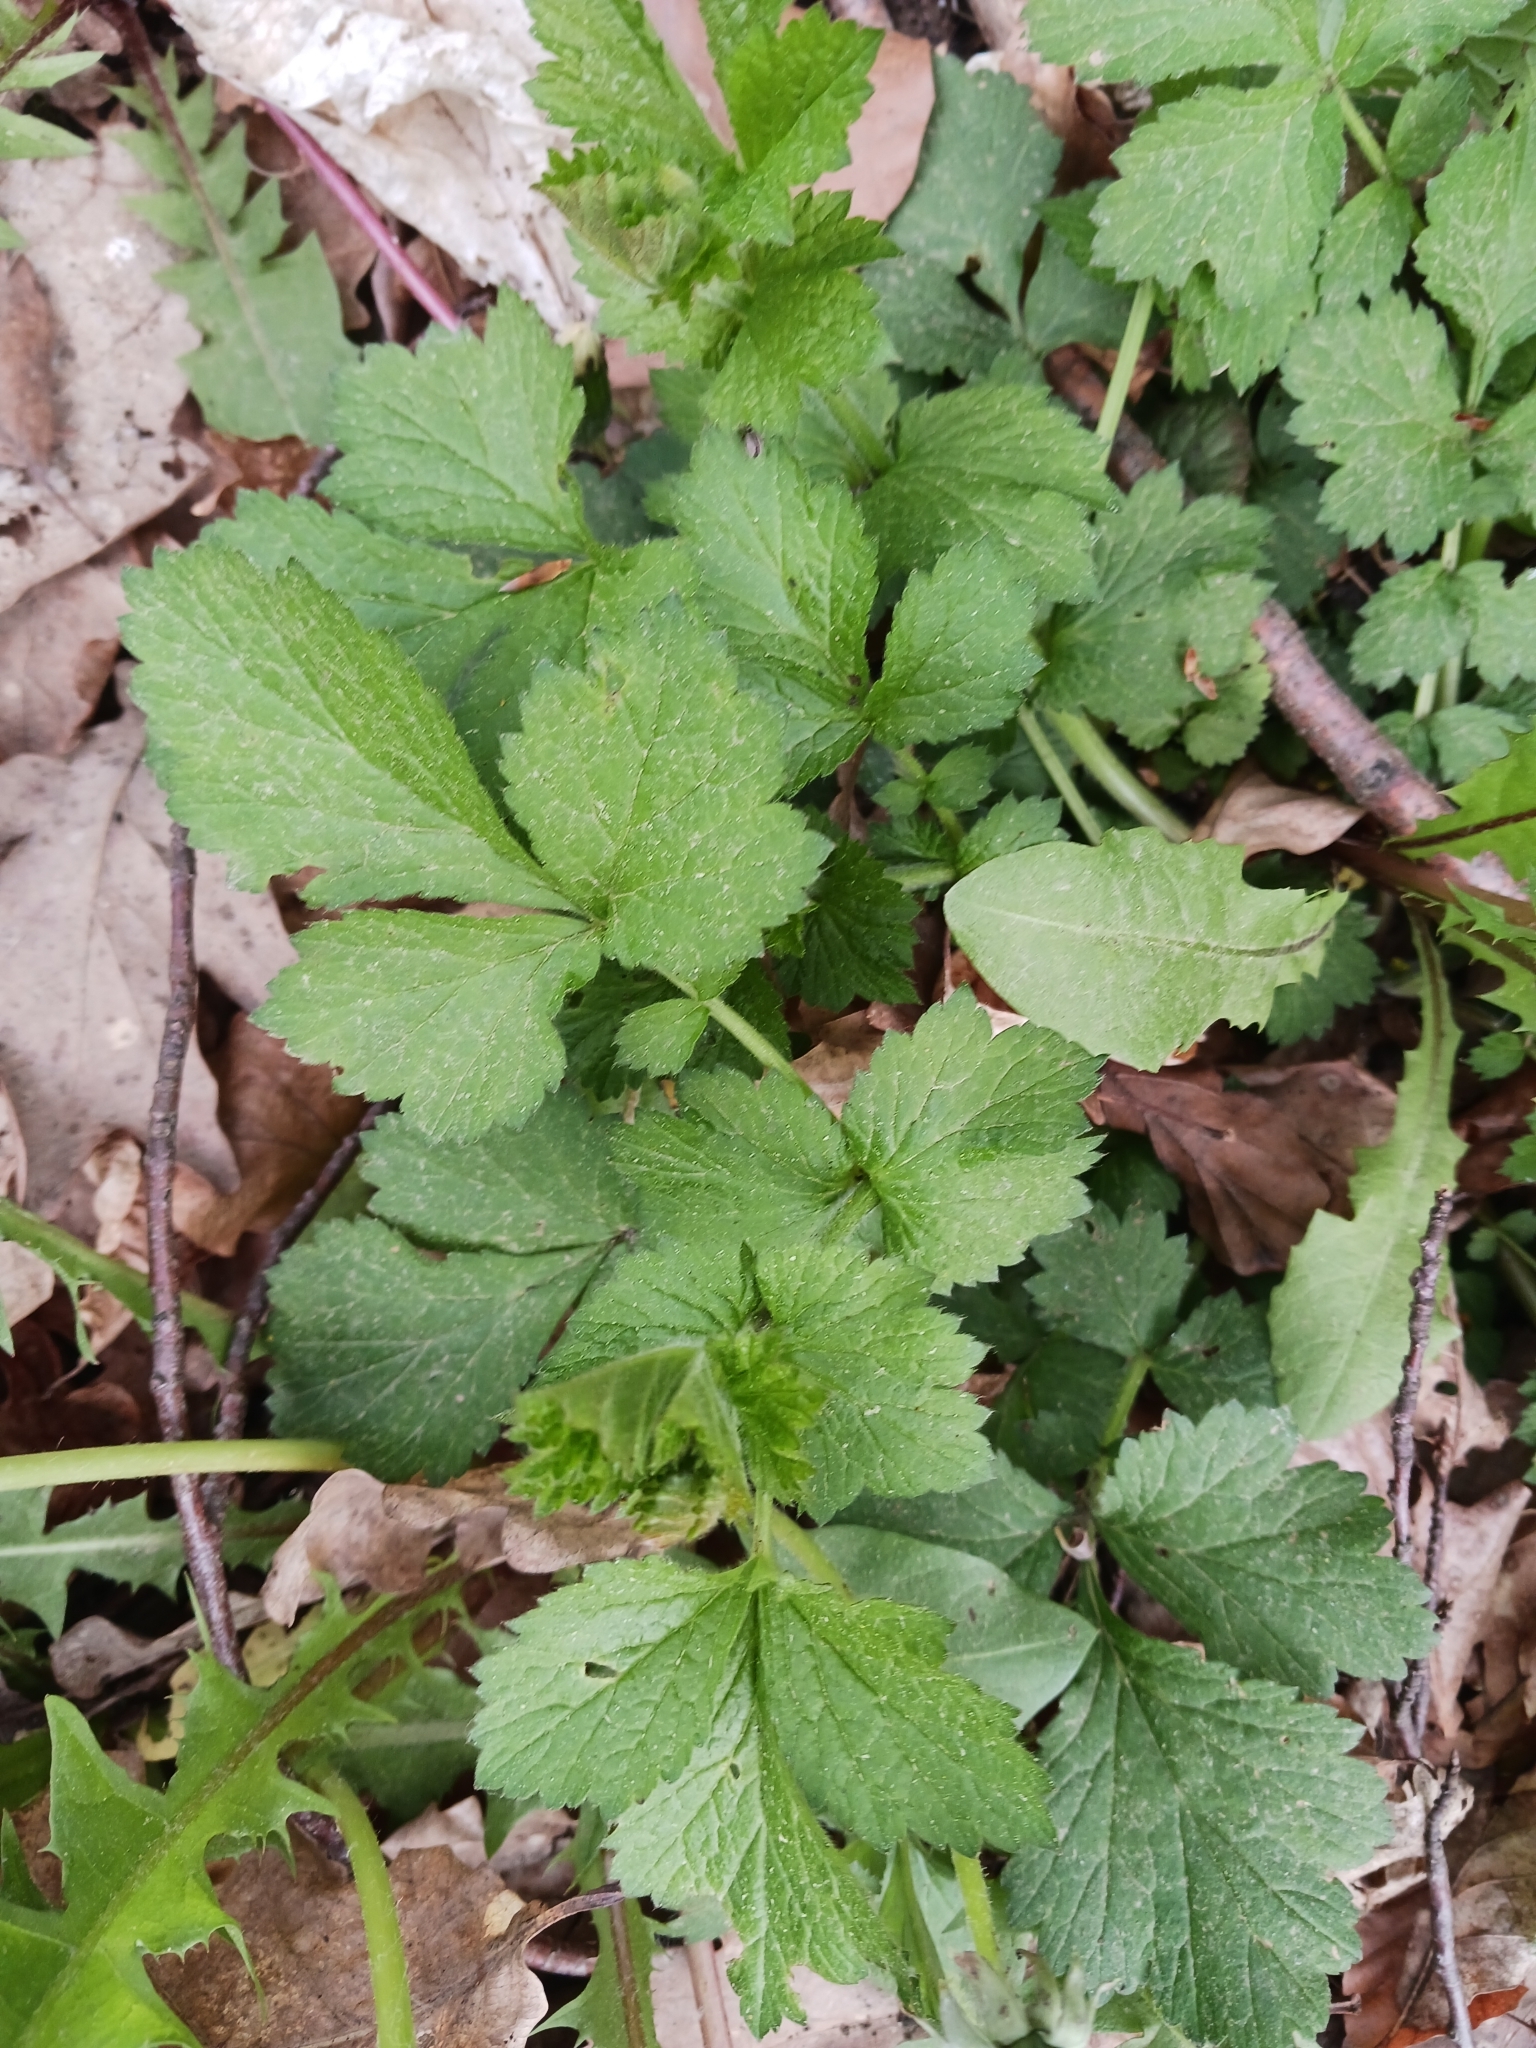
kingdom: Plantae
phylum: Tracheophyta
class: Magnoliopsida
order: Rosales
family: Rosaceae
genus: Geum
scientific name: Geum urbanum
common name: Wood avens
